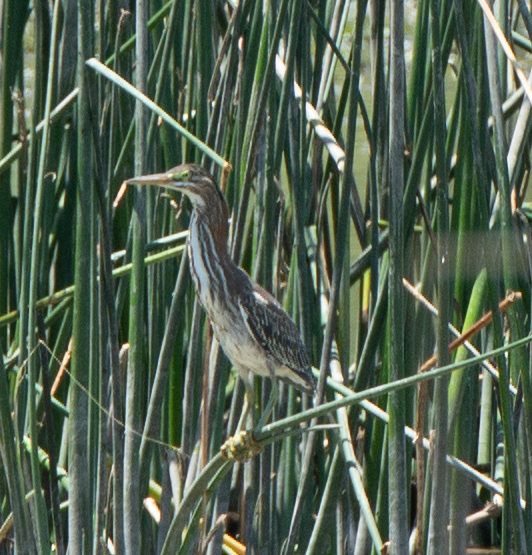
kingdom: Animalia
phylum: Chordata
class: Aves
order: Pelecaniformes
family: Ardeidae
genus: Butorides
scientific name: Butorides virescens
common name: Green heron
